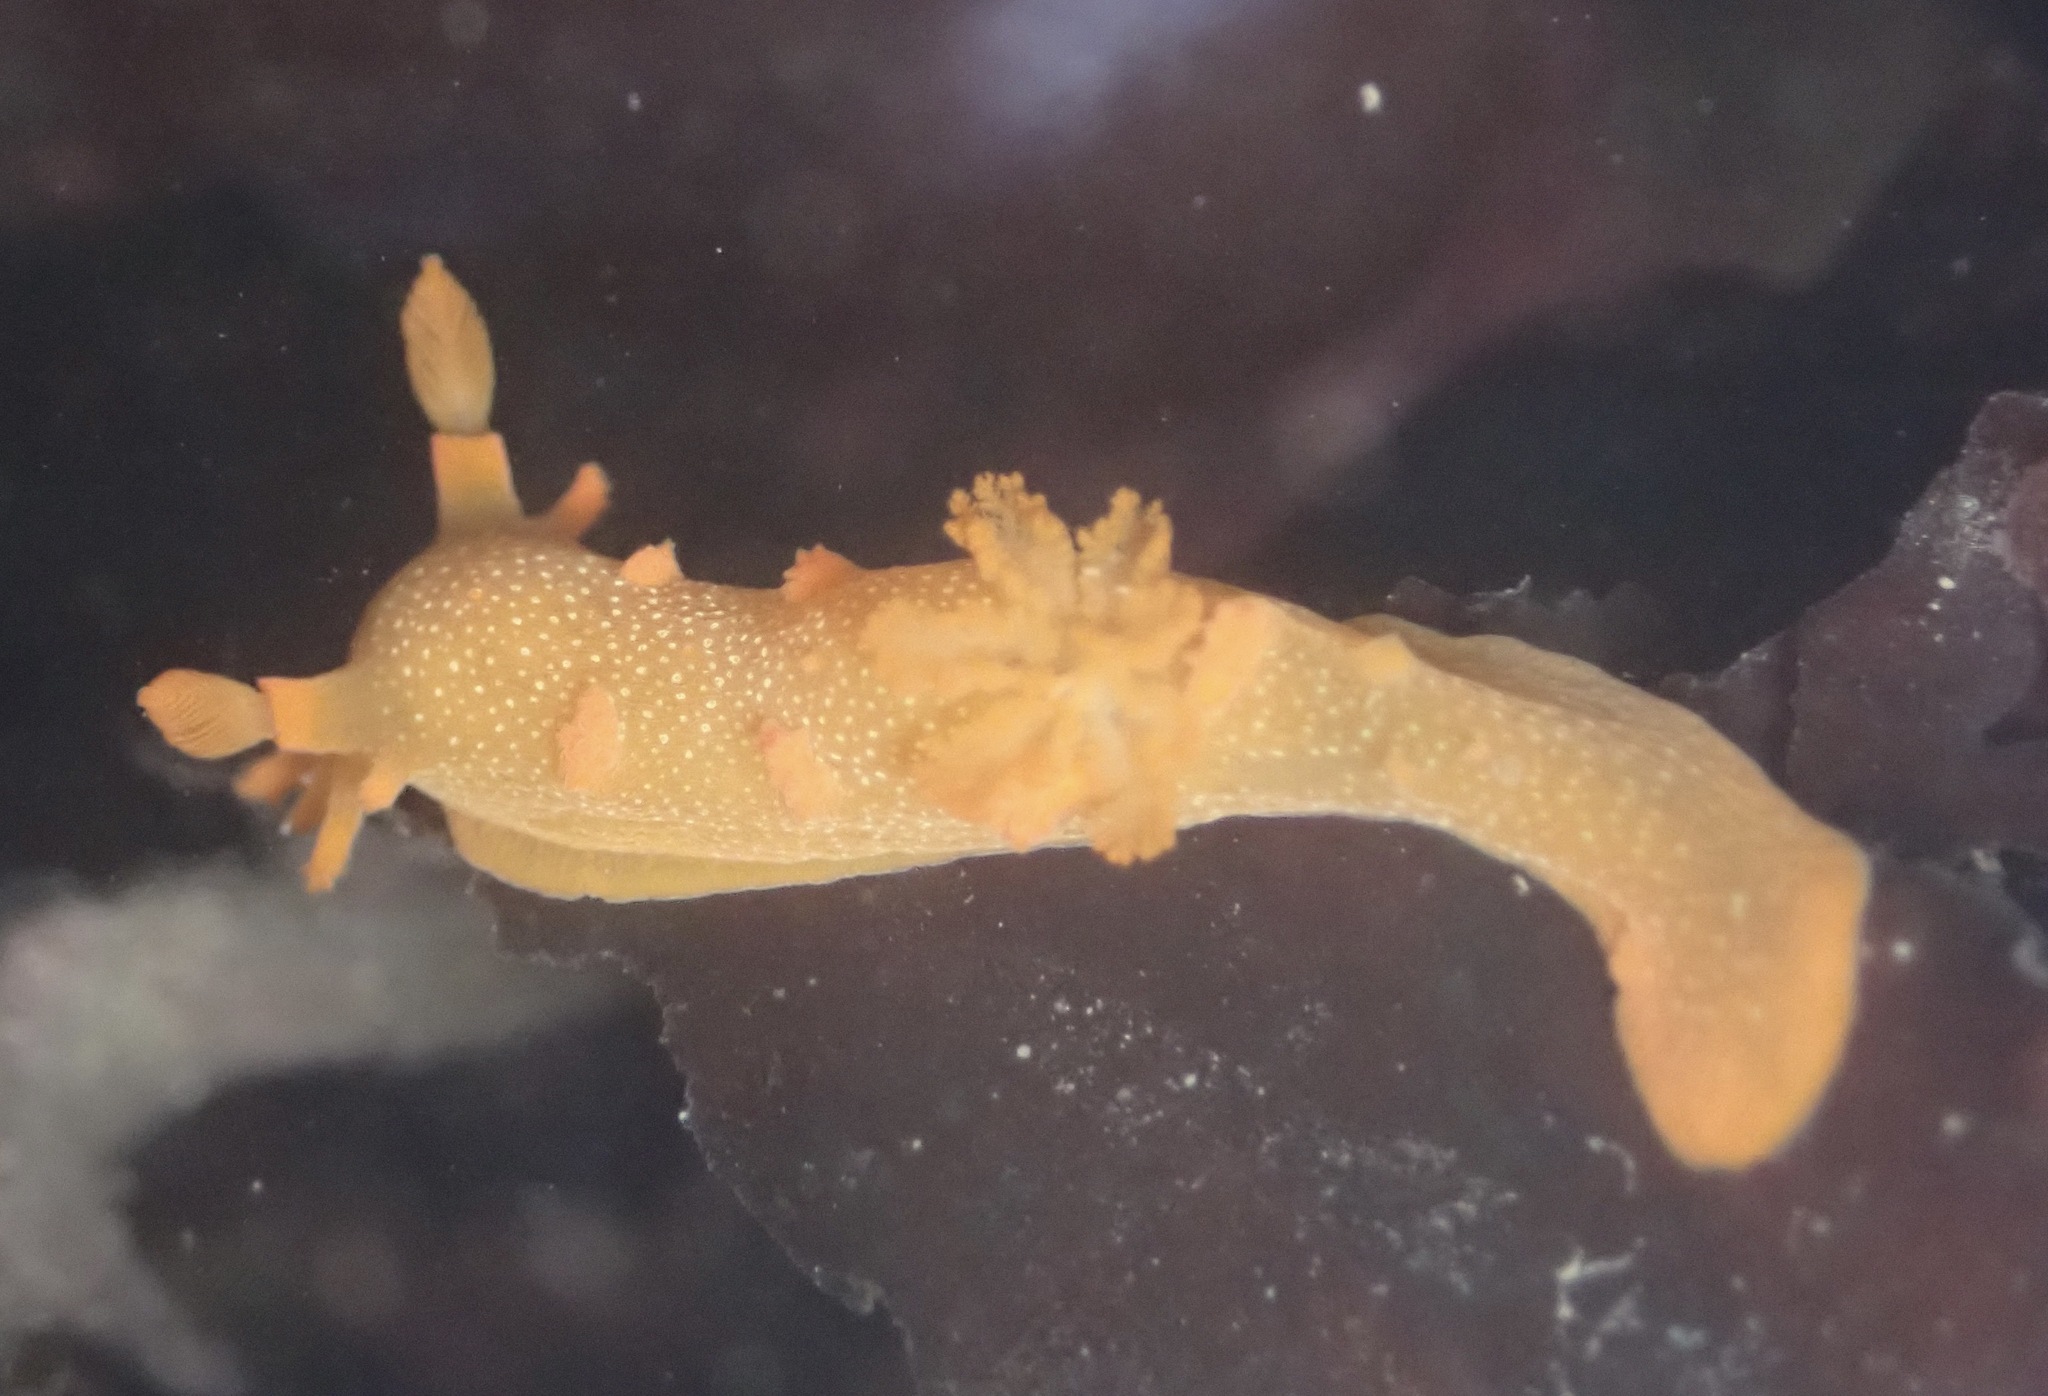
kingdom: Animalia
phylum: Mollusca
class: Gastropoda
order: Nudibranchia
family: Polyceridae
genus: Triopha
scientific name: Triopha maculata
